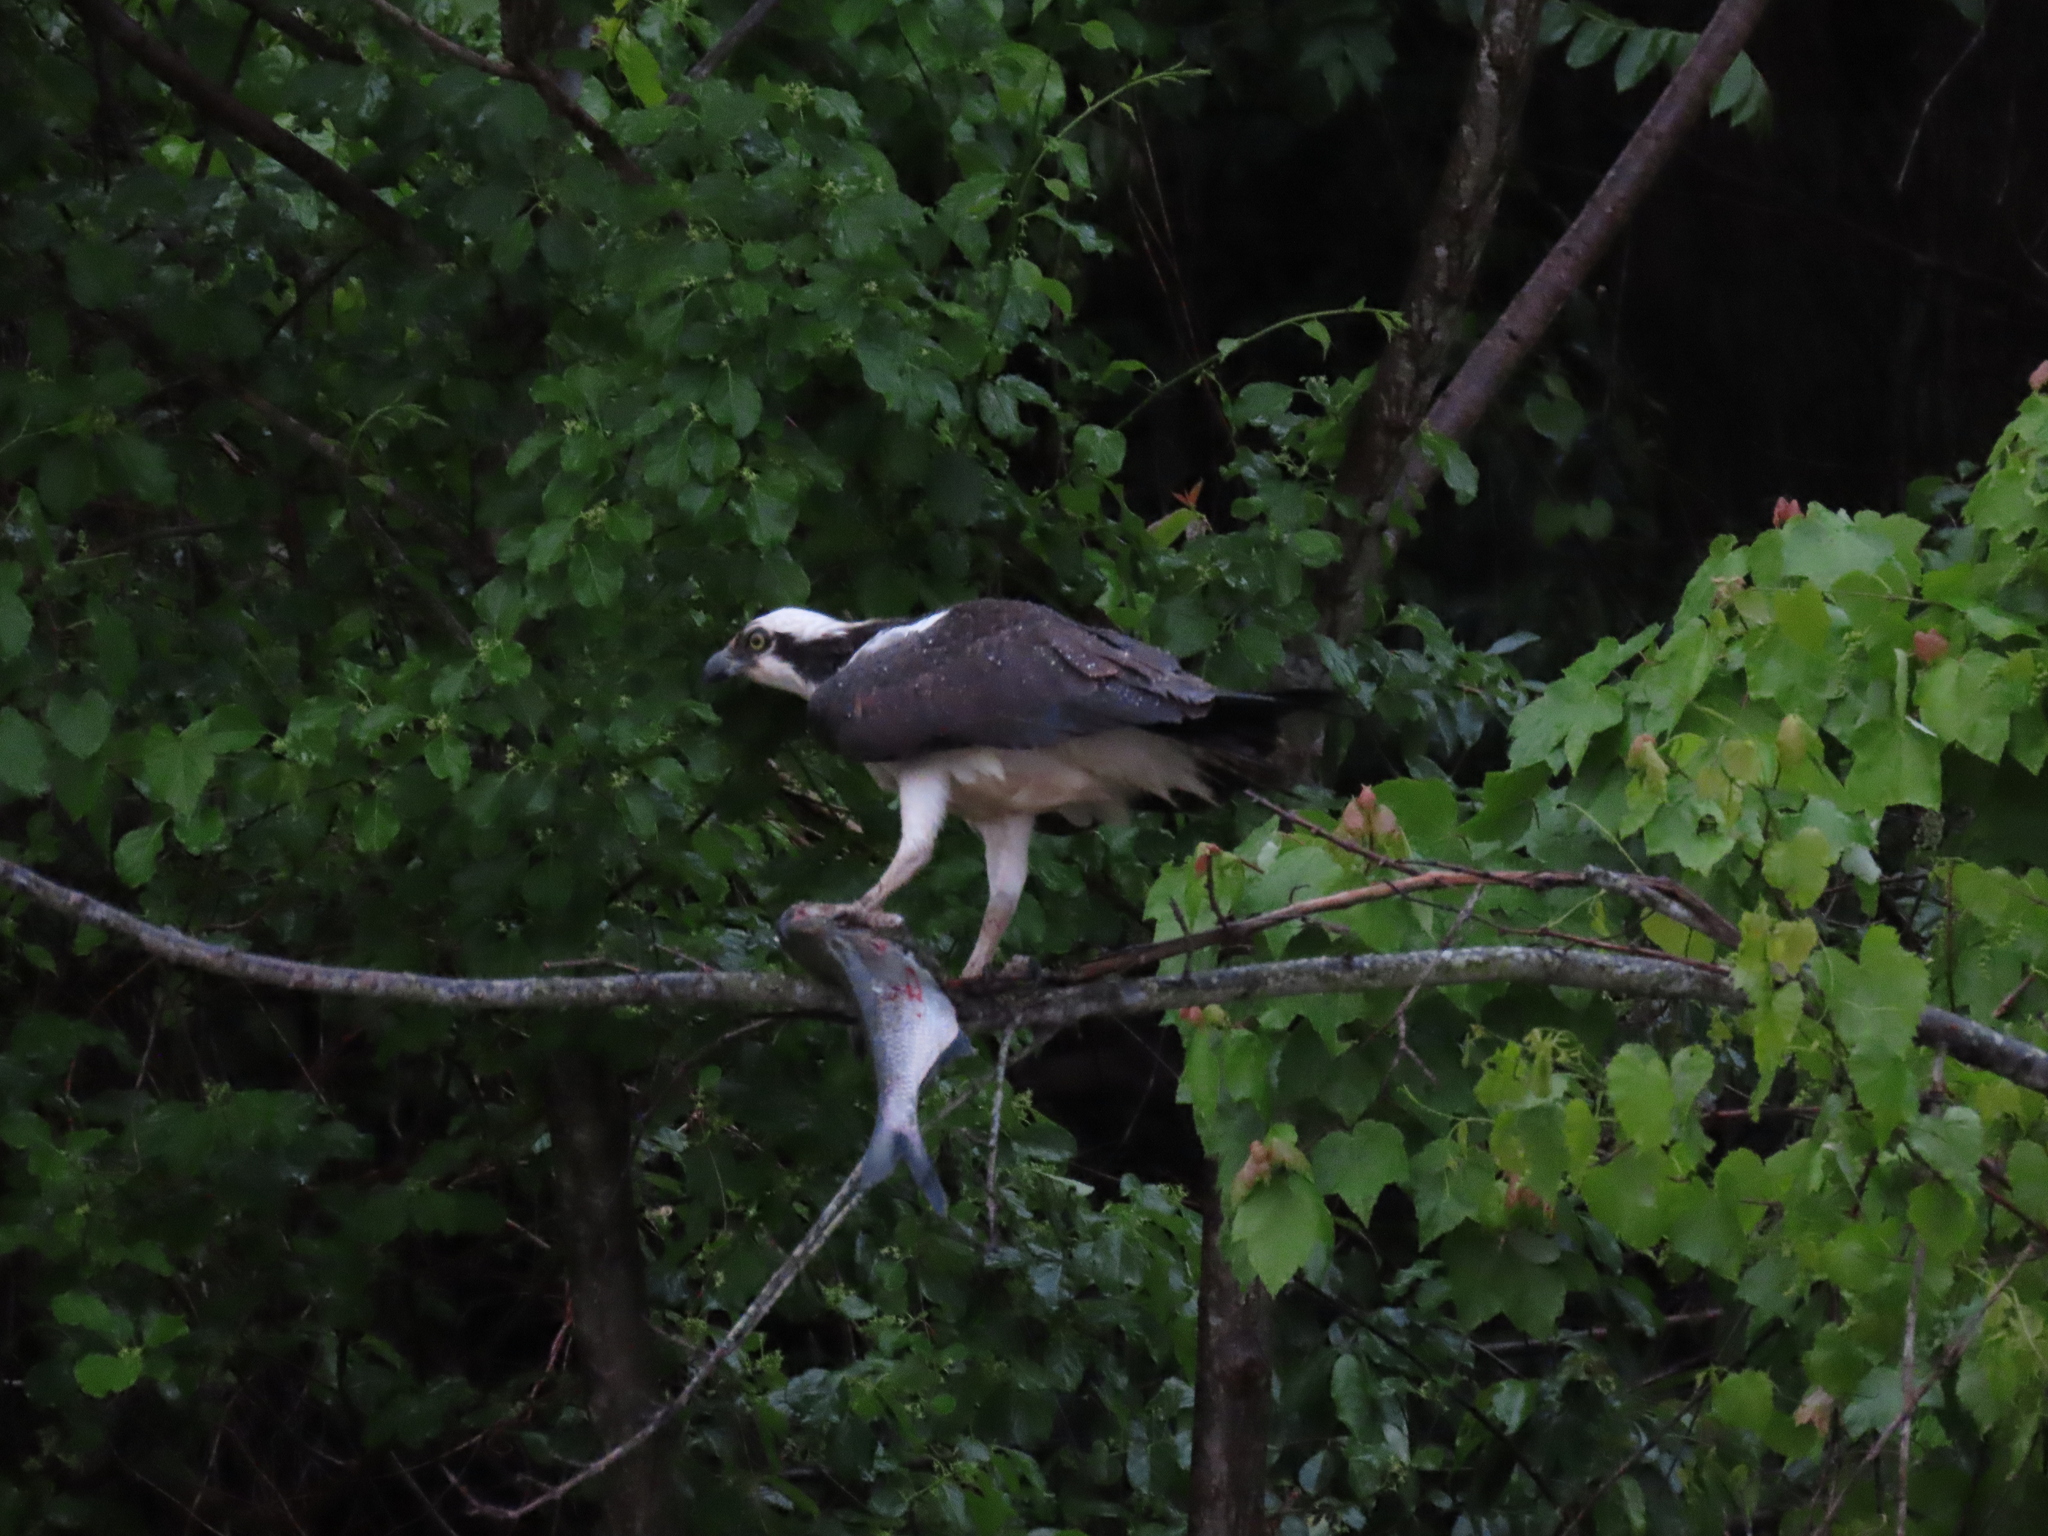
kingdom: Animalia
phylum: Chordata
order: Clupeiformes
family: Clupeidae
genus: Dorosoma
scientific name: Dorosoma cepedianum
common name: Gizzard shad
